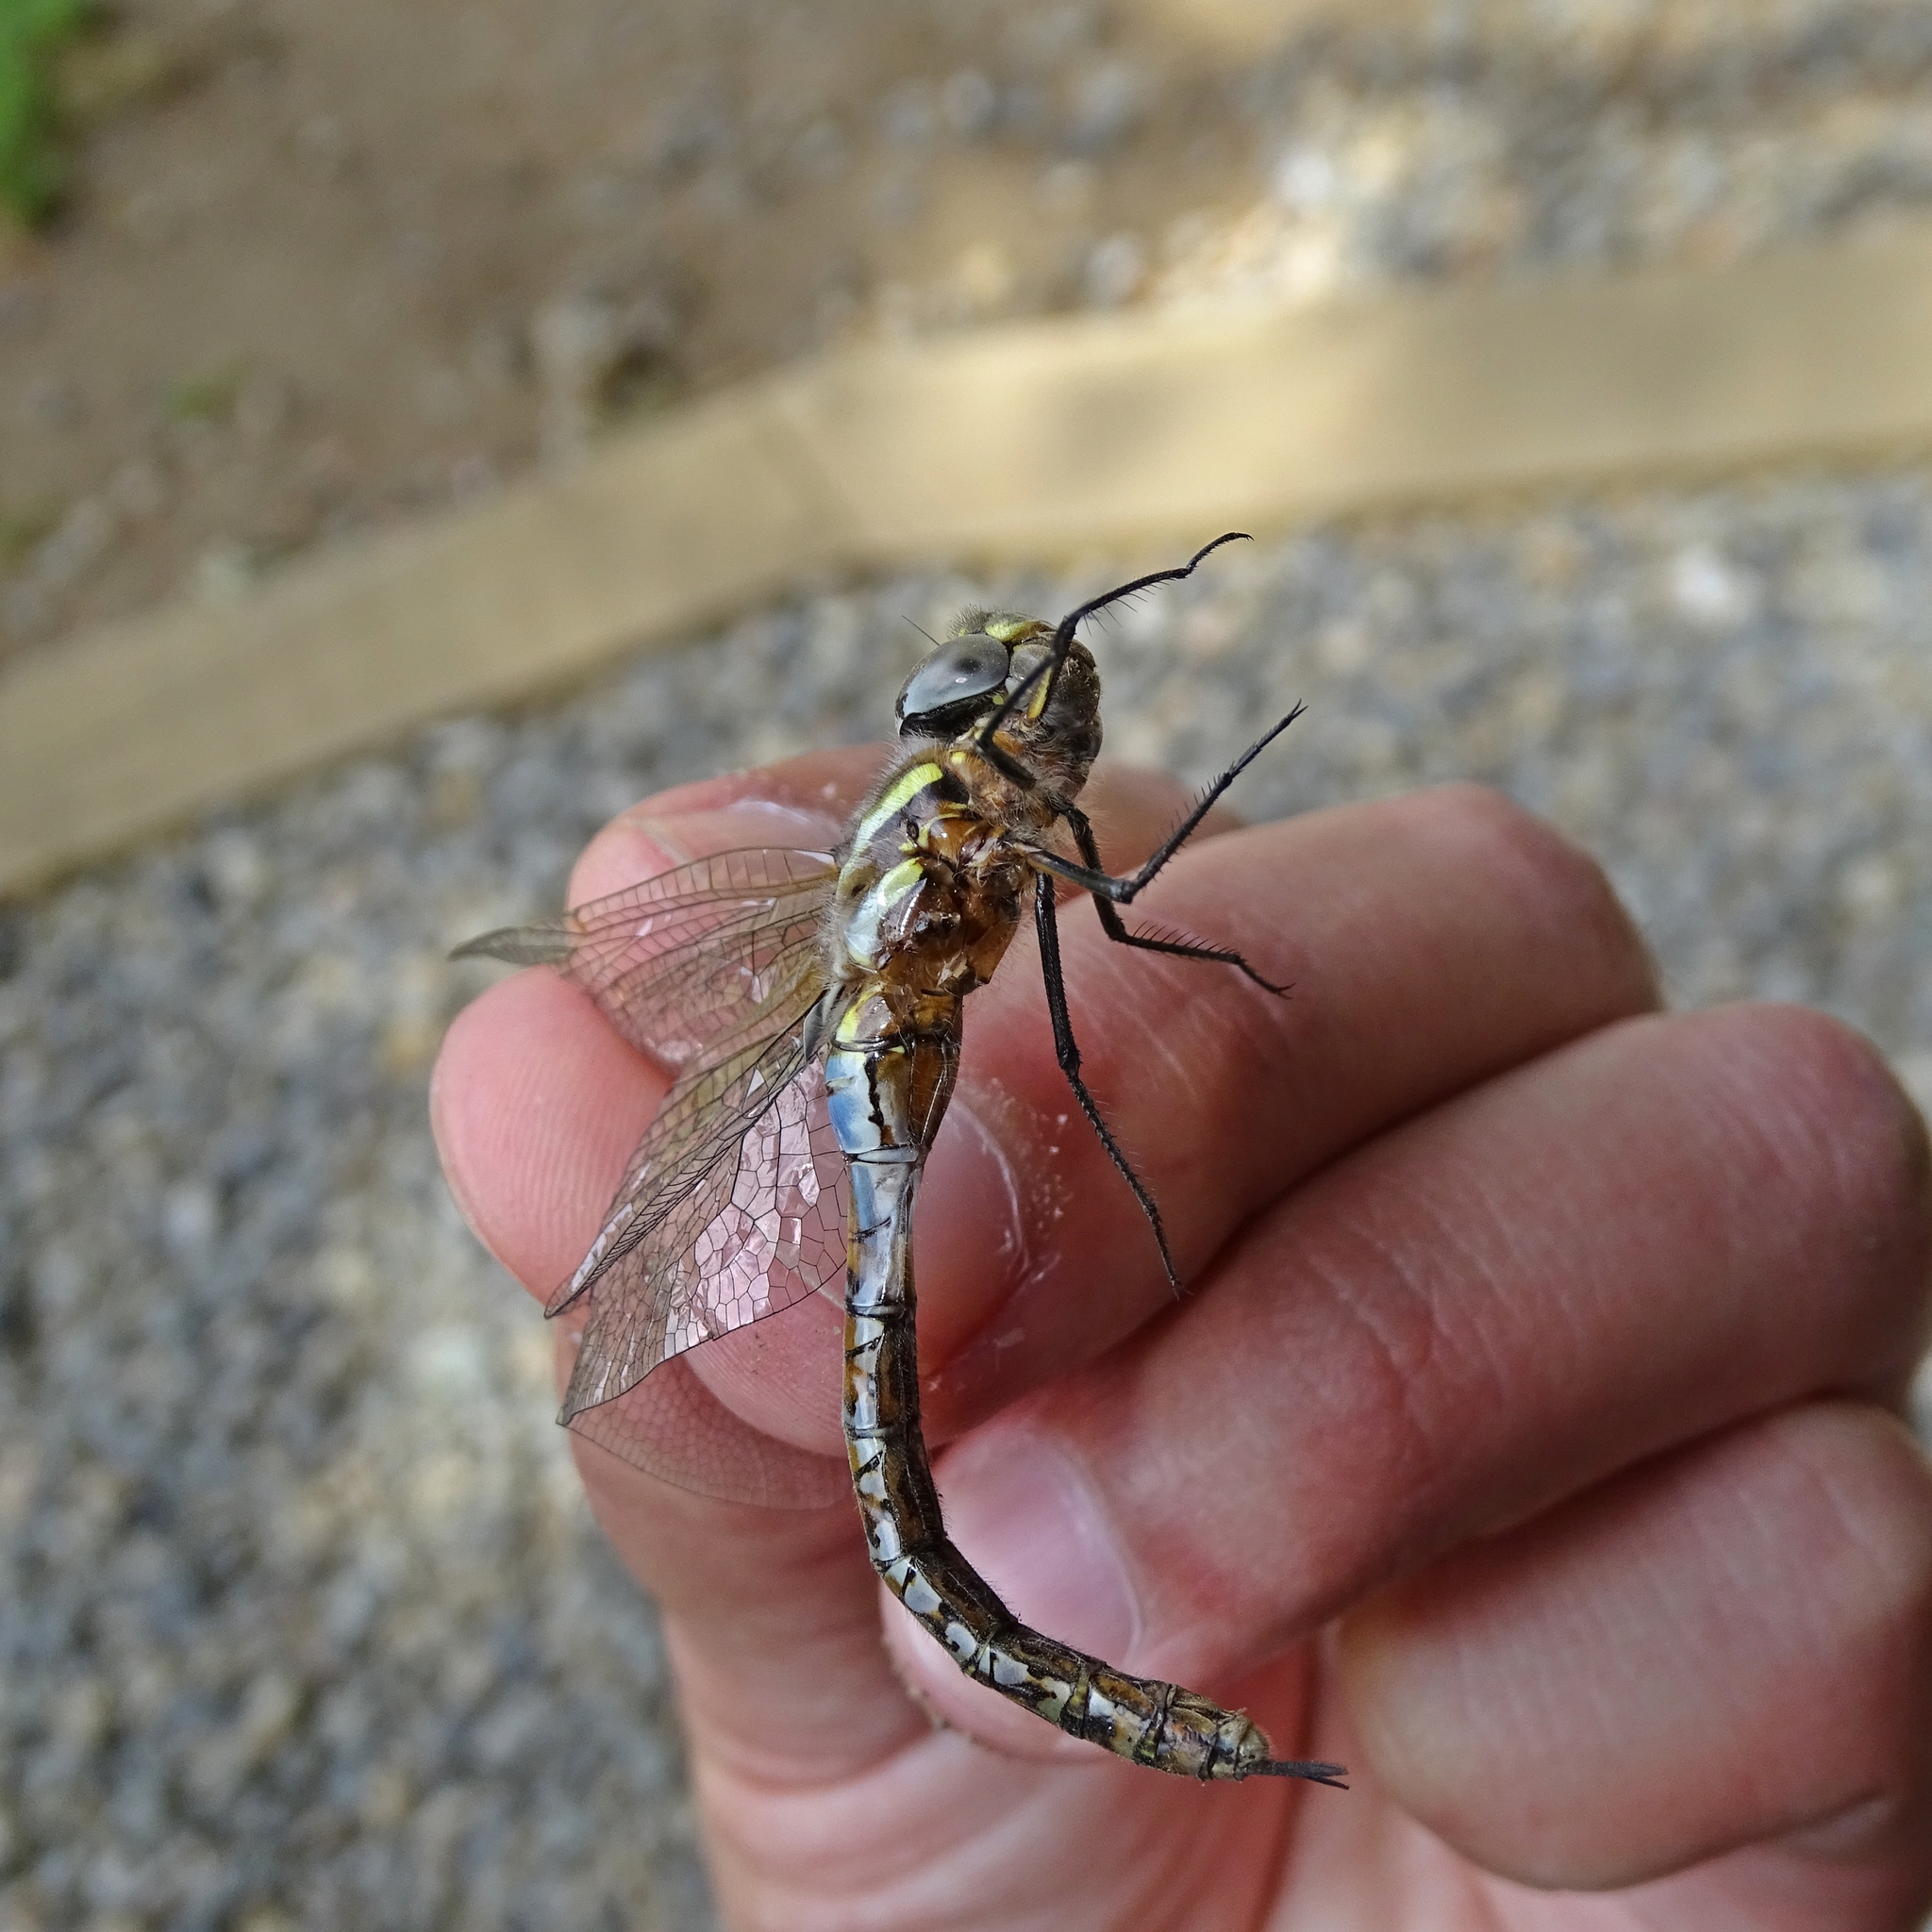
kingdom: Animalia
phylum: Arthropoda
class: Insecta
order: Odonata
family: Aeshnidae
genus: Rhionaeschna
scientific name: Rhionaeschna diffinis
